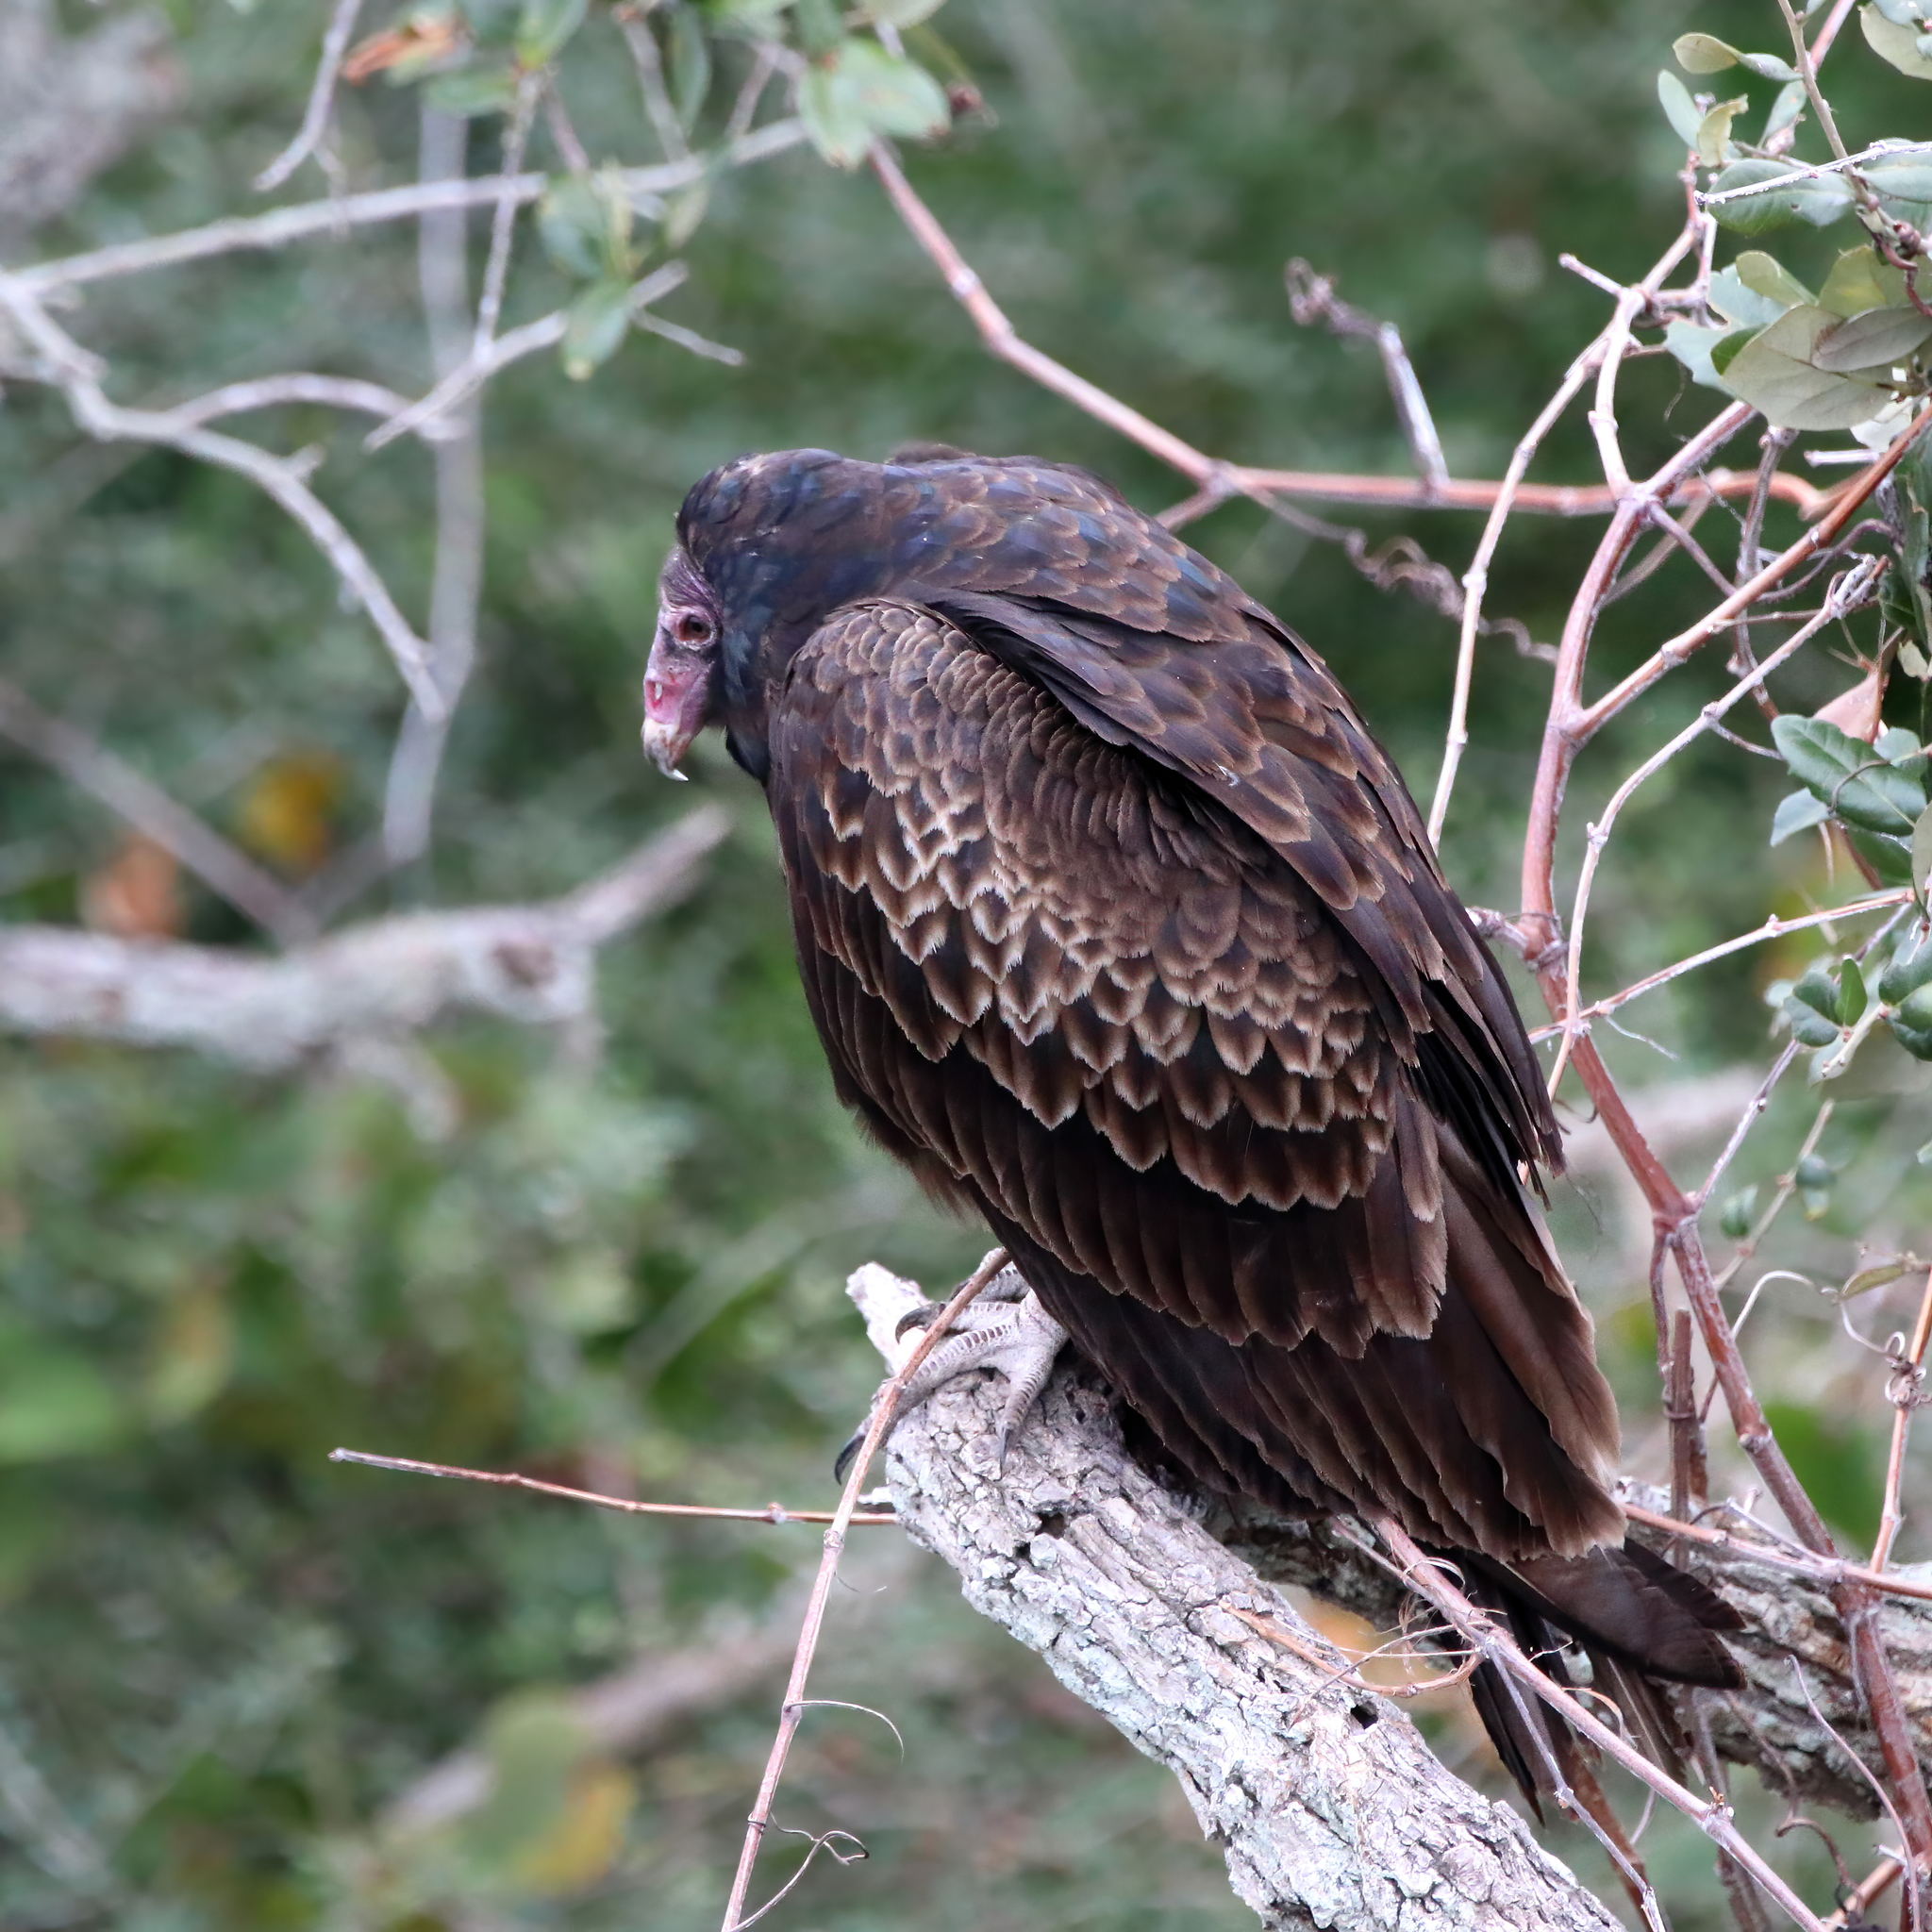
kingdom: Animalia
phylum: Chordata
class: Aves
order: Accipitriformes
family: Cathartidae
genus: Cathartes
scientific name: Cathartes aura
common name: Turkey vulture
